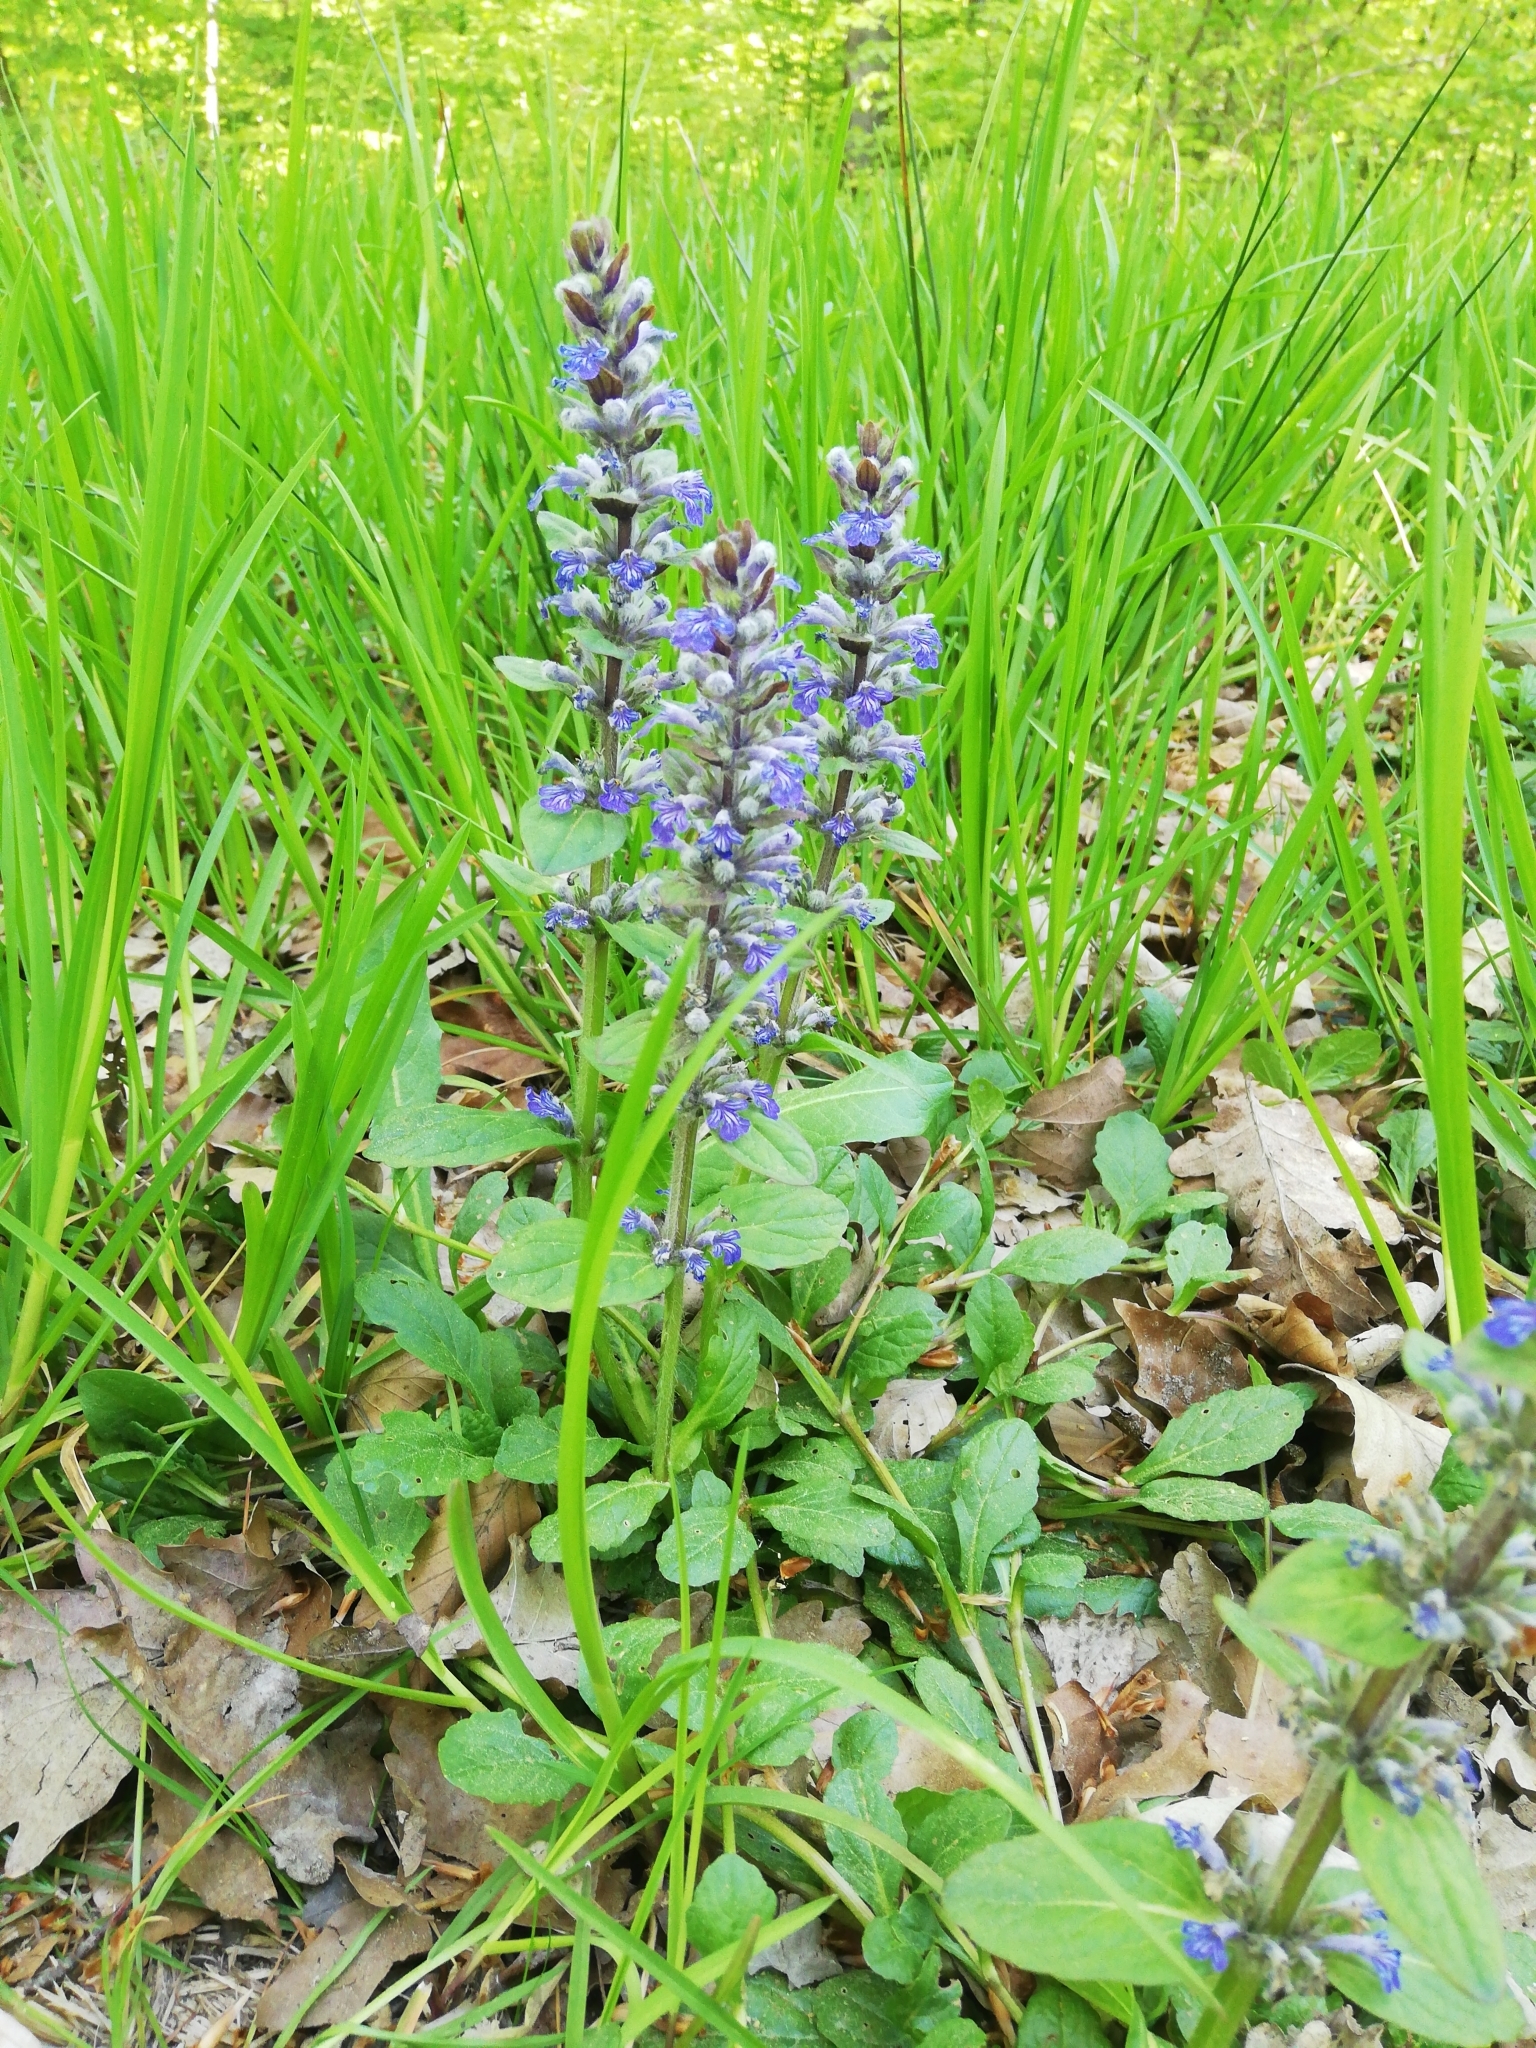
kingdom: Plantae
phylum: Tracheophyta
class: Magnoliopsida
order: Lamiales
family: Lamiaceae
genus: Ajuga
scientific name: Ajuga reptans
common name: Bugle
